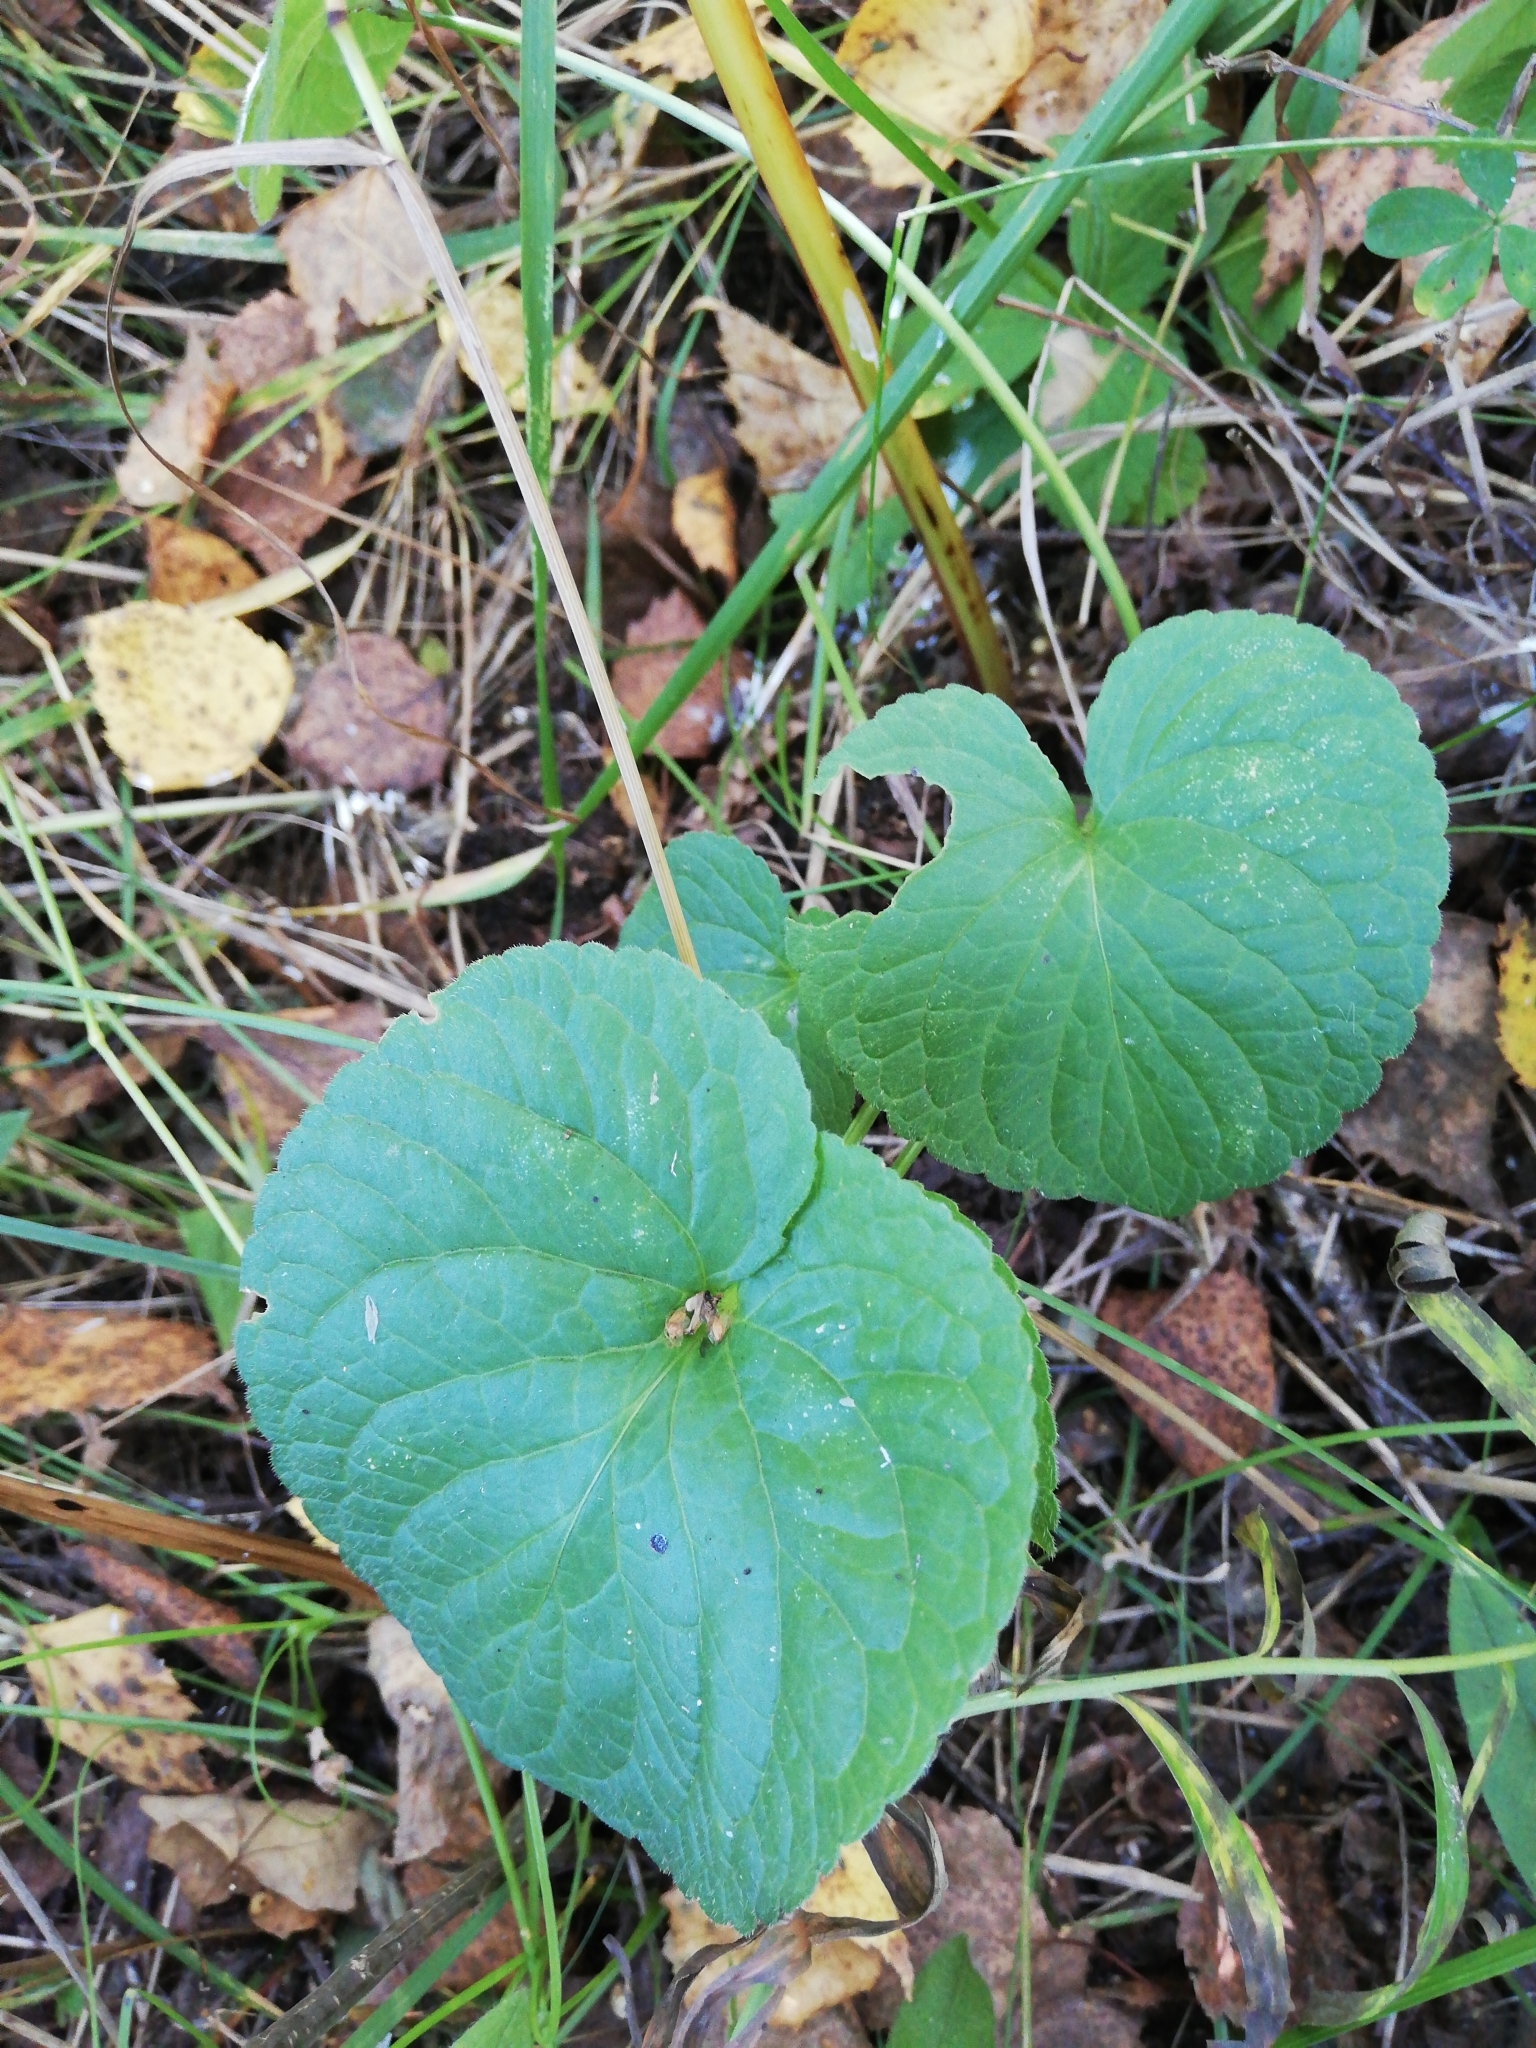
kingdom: Plantae
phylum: Tracheophyta
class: Magnoliopsida
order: Malpighiales
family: Violaceae
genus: Viola
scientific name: Viola mirabilis
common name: Wonder violet
